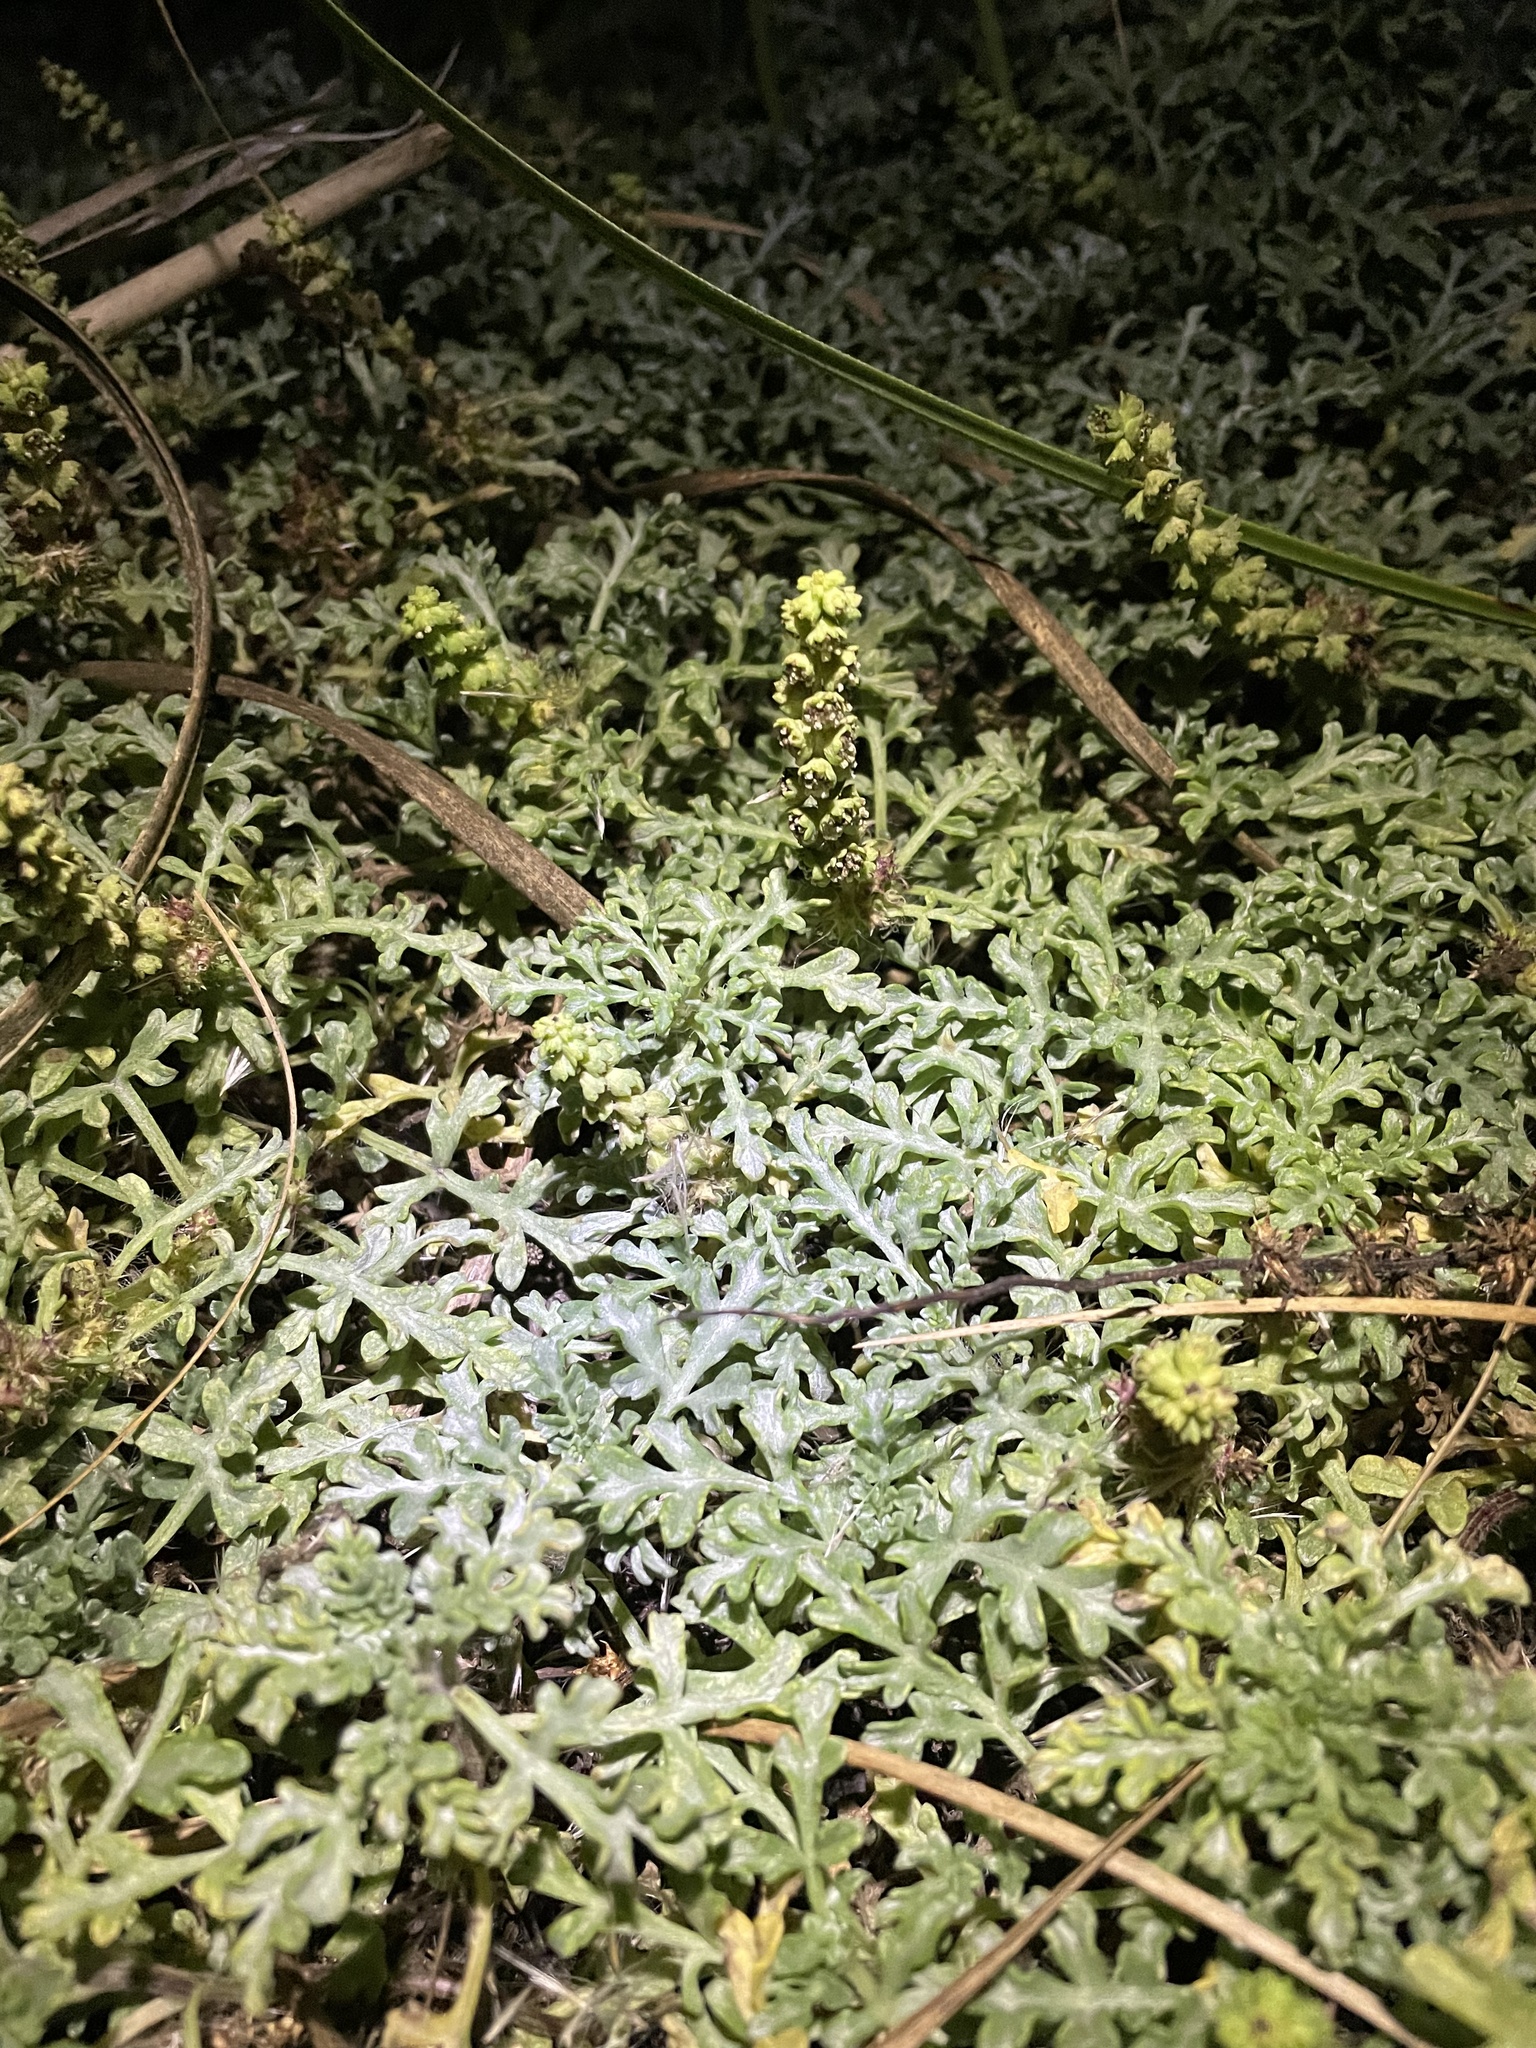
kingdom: Plantae
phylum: Tracheophyta
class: Magnoliopsida
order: Asterales
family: Asteraceae
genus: Ambrosia
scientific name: Ambrosia chamissonis
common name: Beachbur
